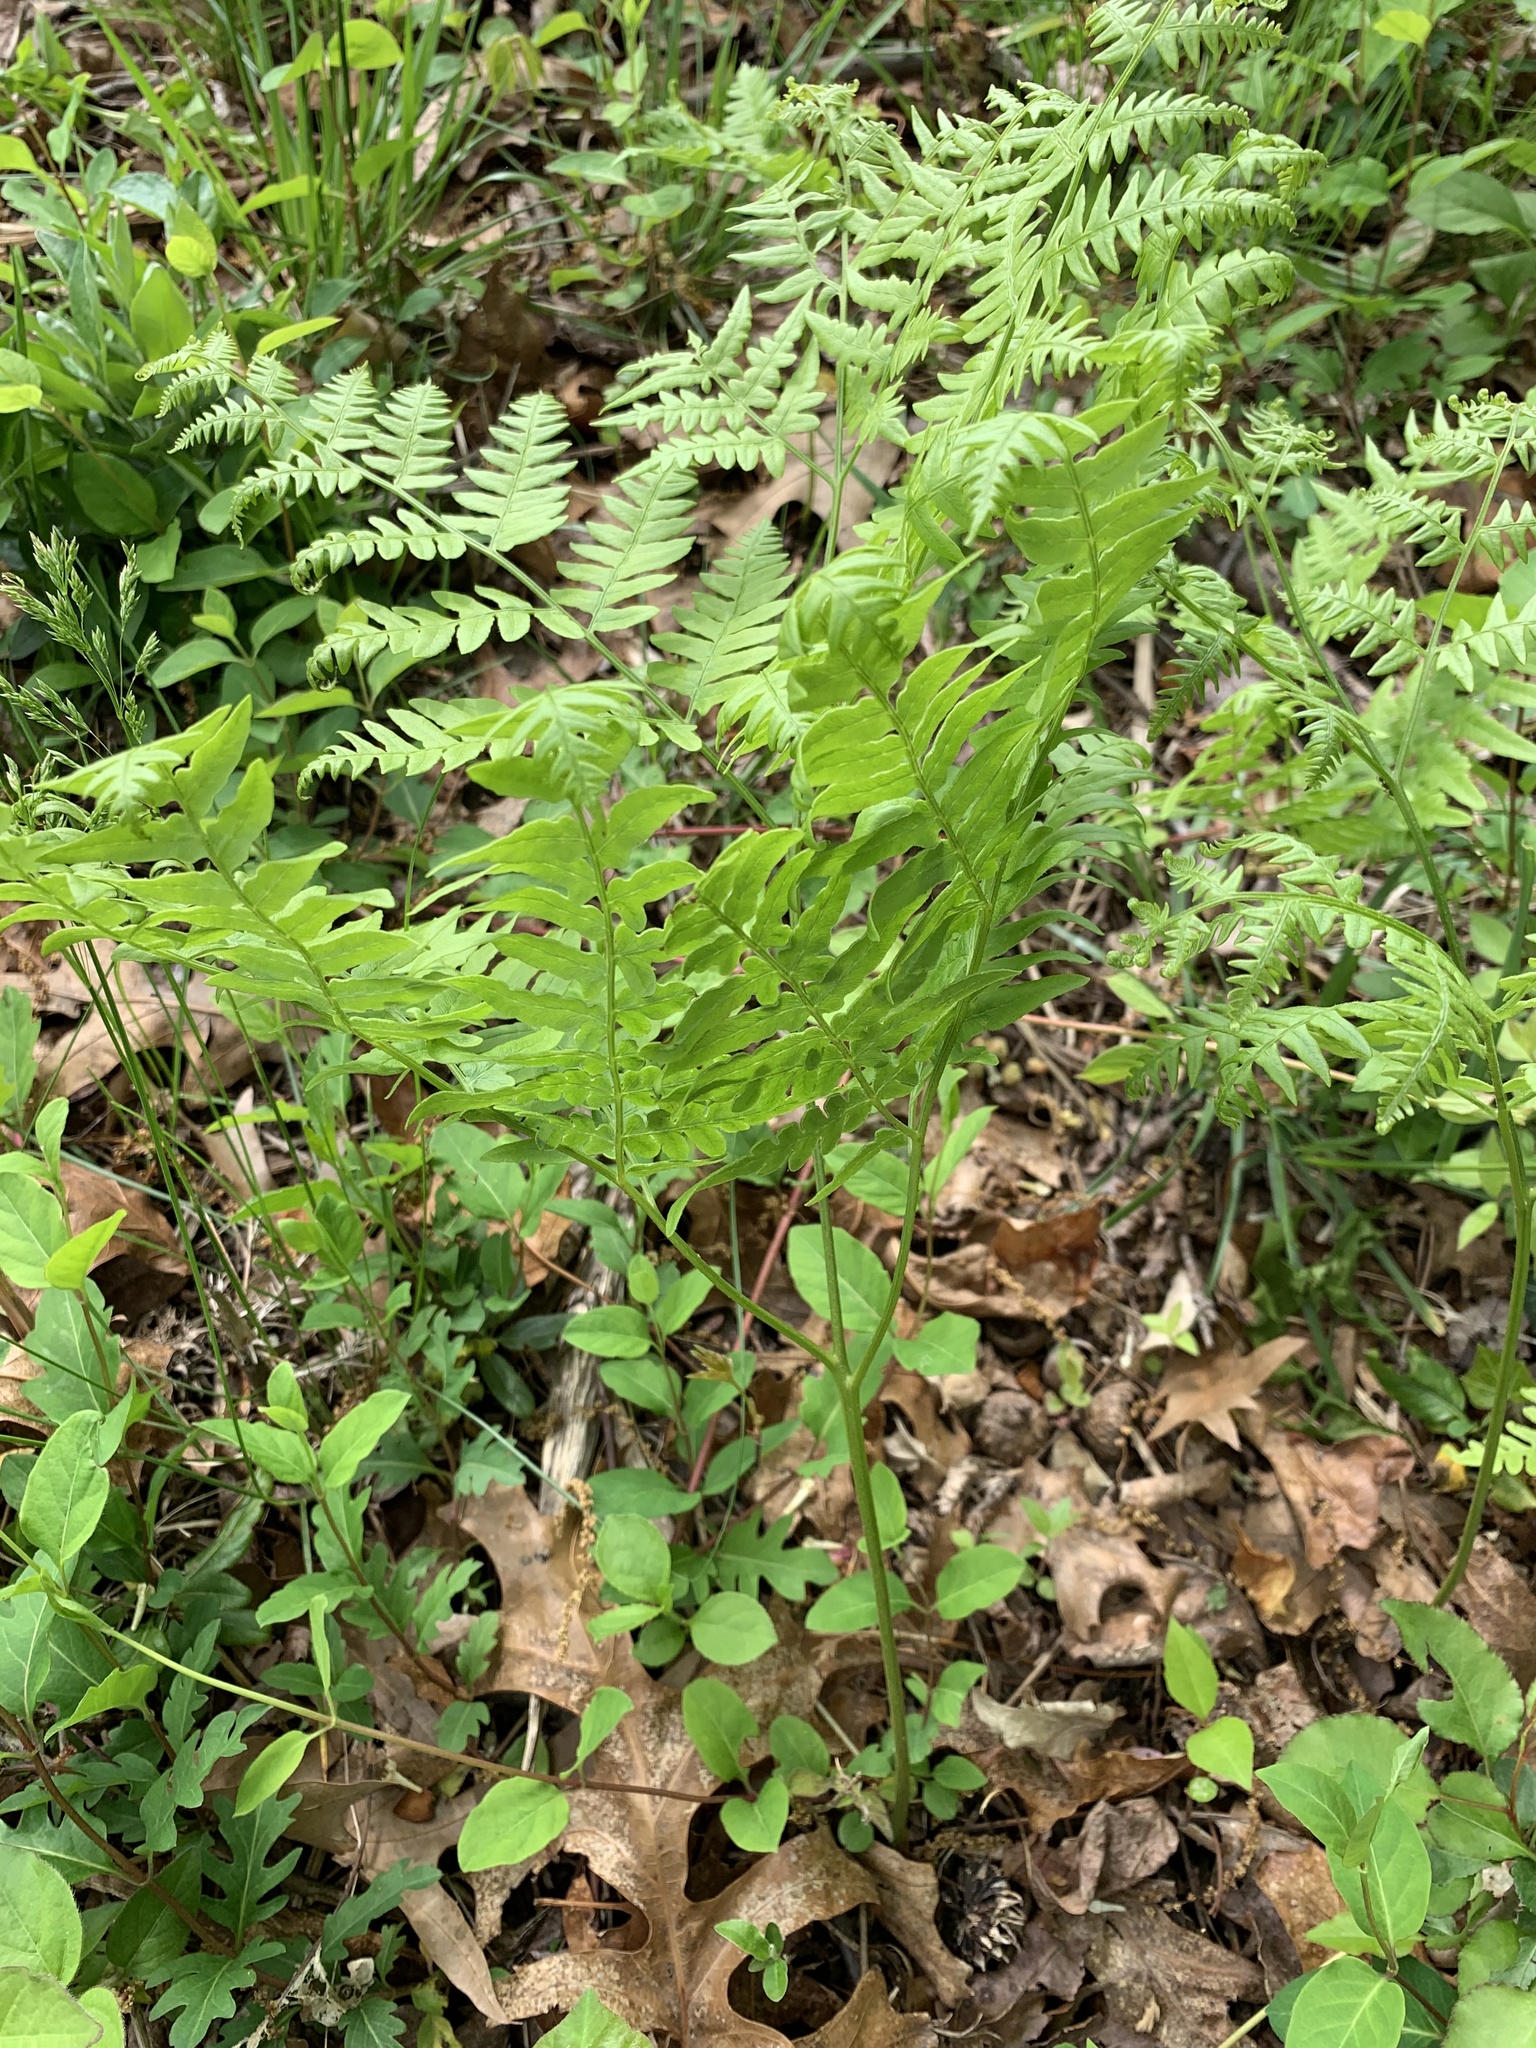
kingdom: Plantae
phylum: Tracheophyta
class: Polypodiopsida
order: Polypodiales
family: Dennstaedtiaceae
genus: Pteridium
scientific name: Pteridium aquilinum
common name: Bracken
